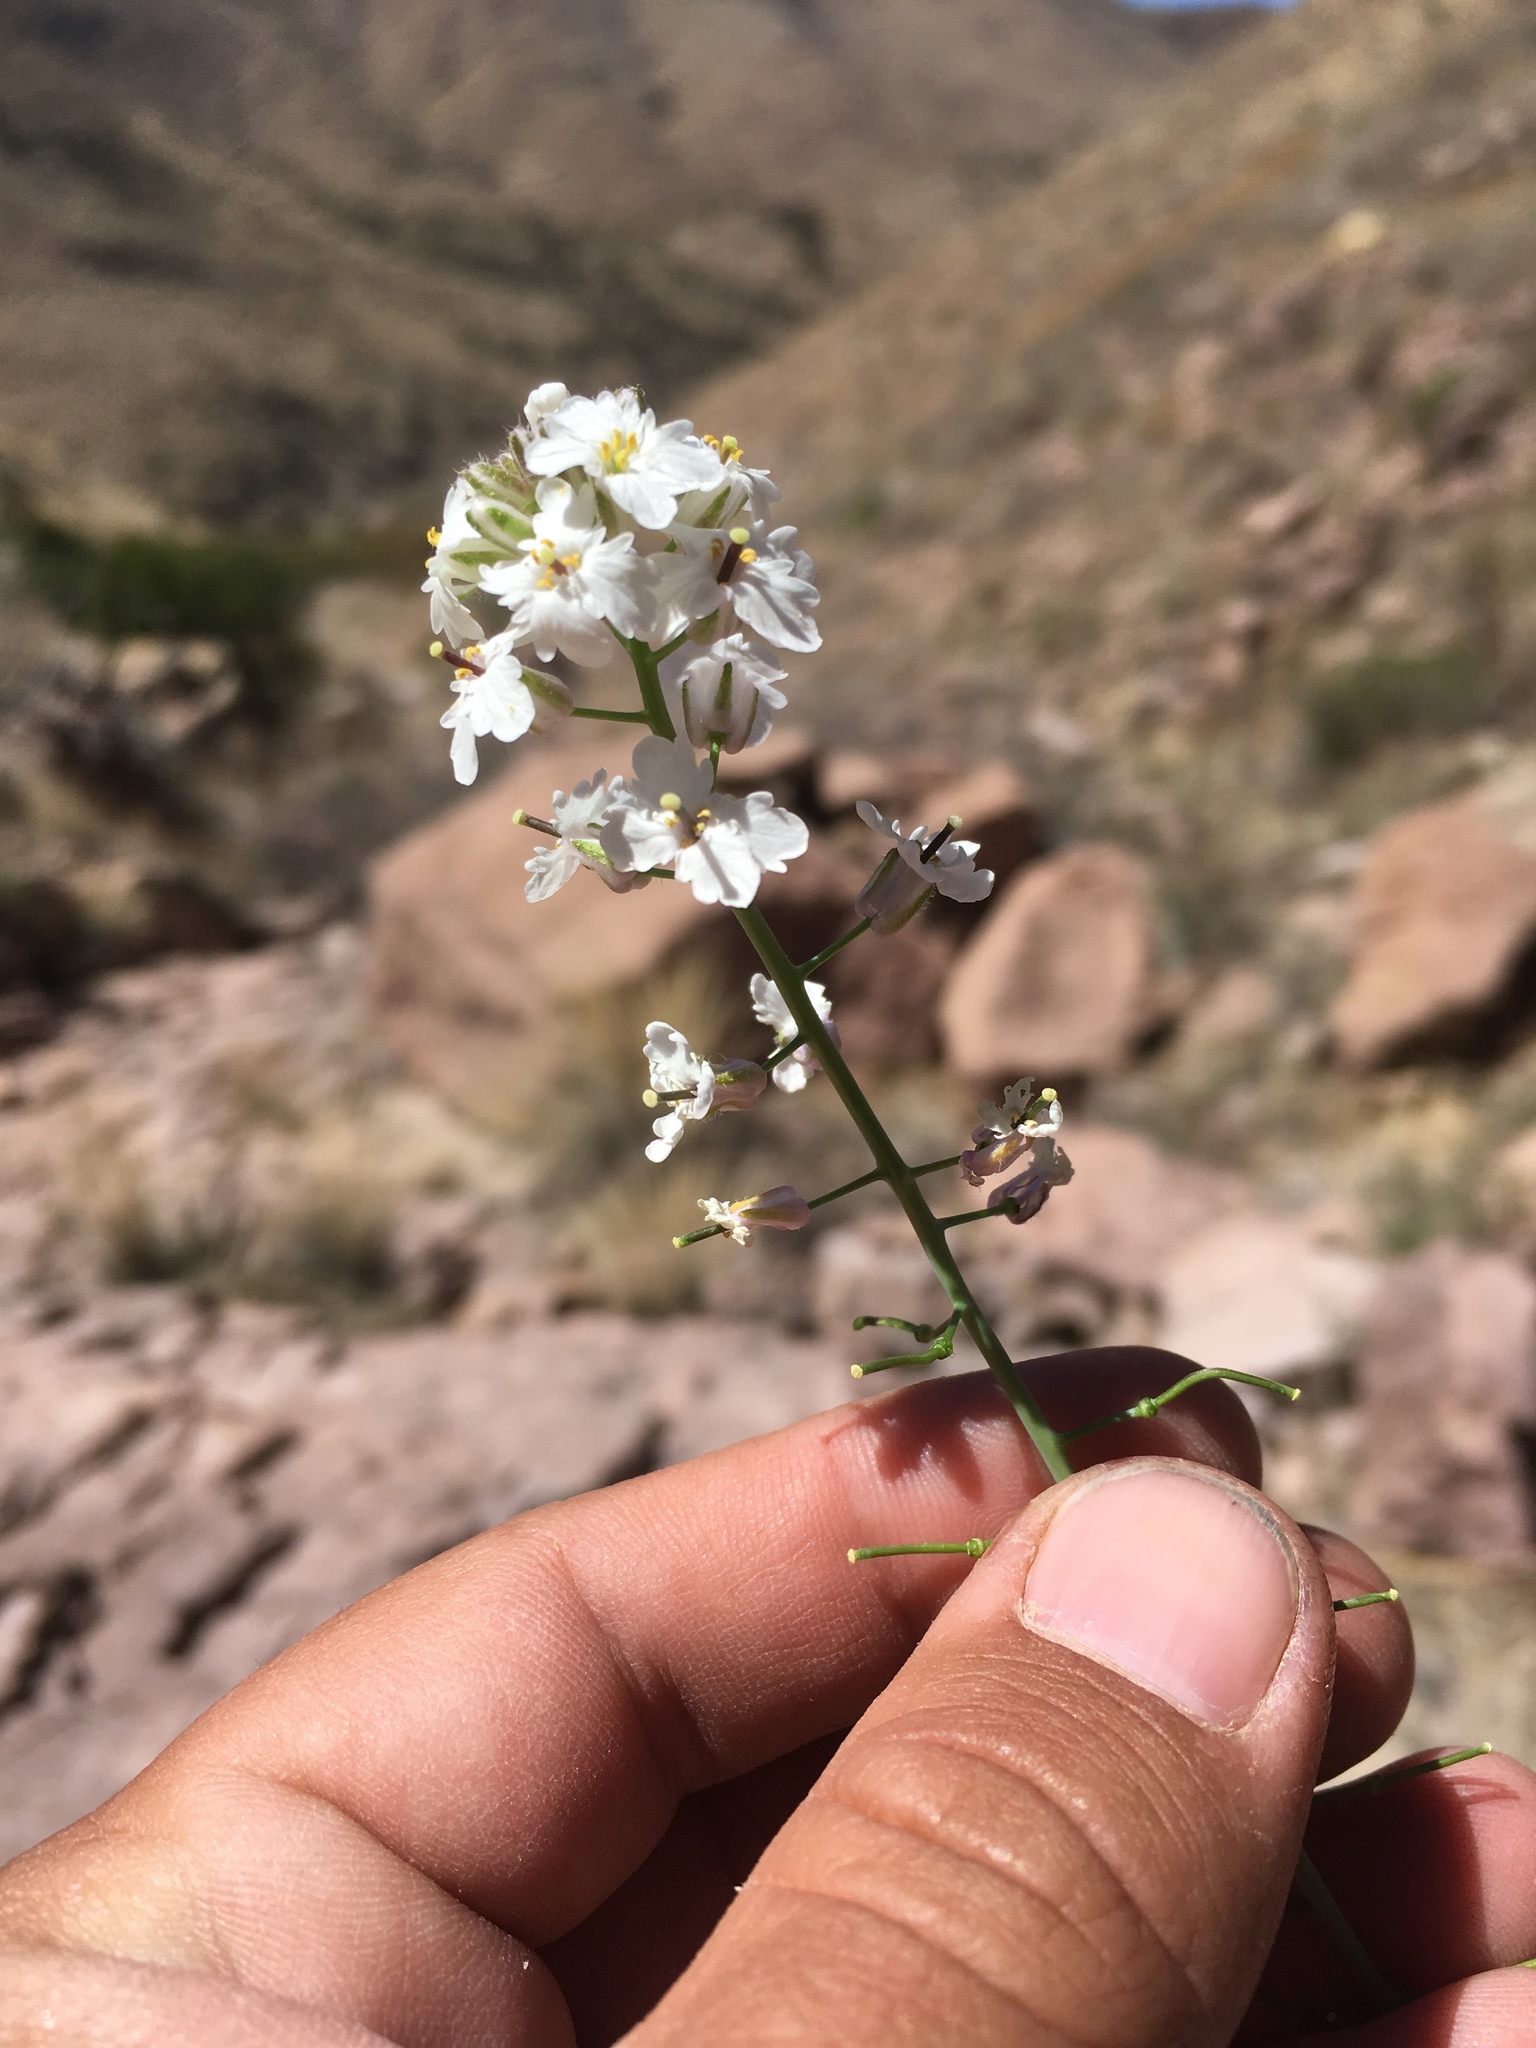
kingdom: Plantae
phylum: Tracheophyta
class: Magnoliopsida
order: Brassicales
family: Brassicaceae
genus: Dryopetalon
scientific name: Dryopetalon runcinatum
